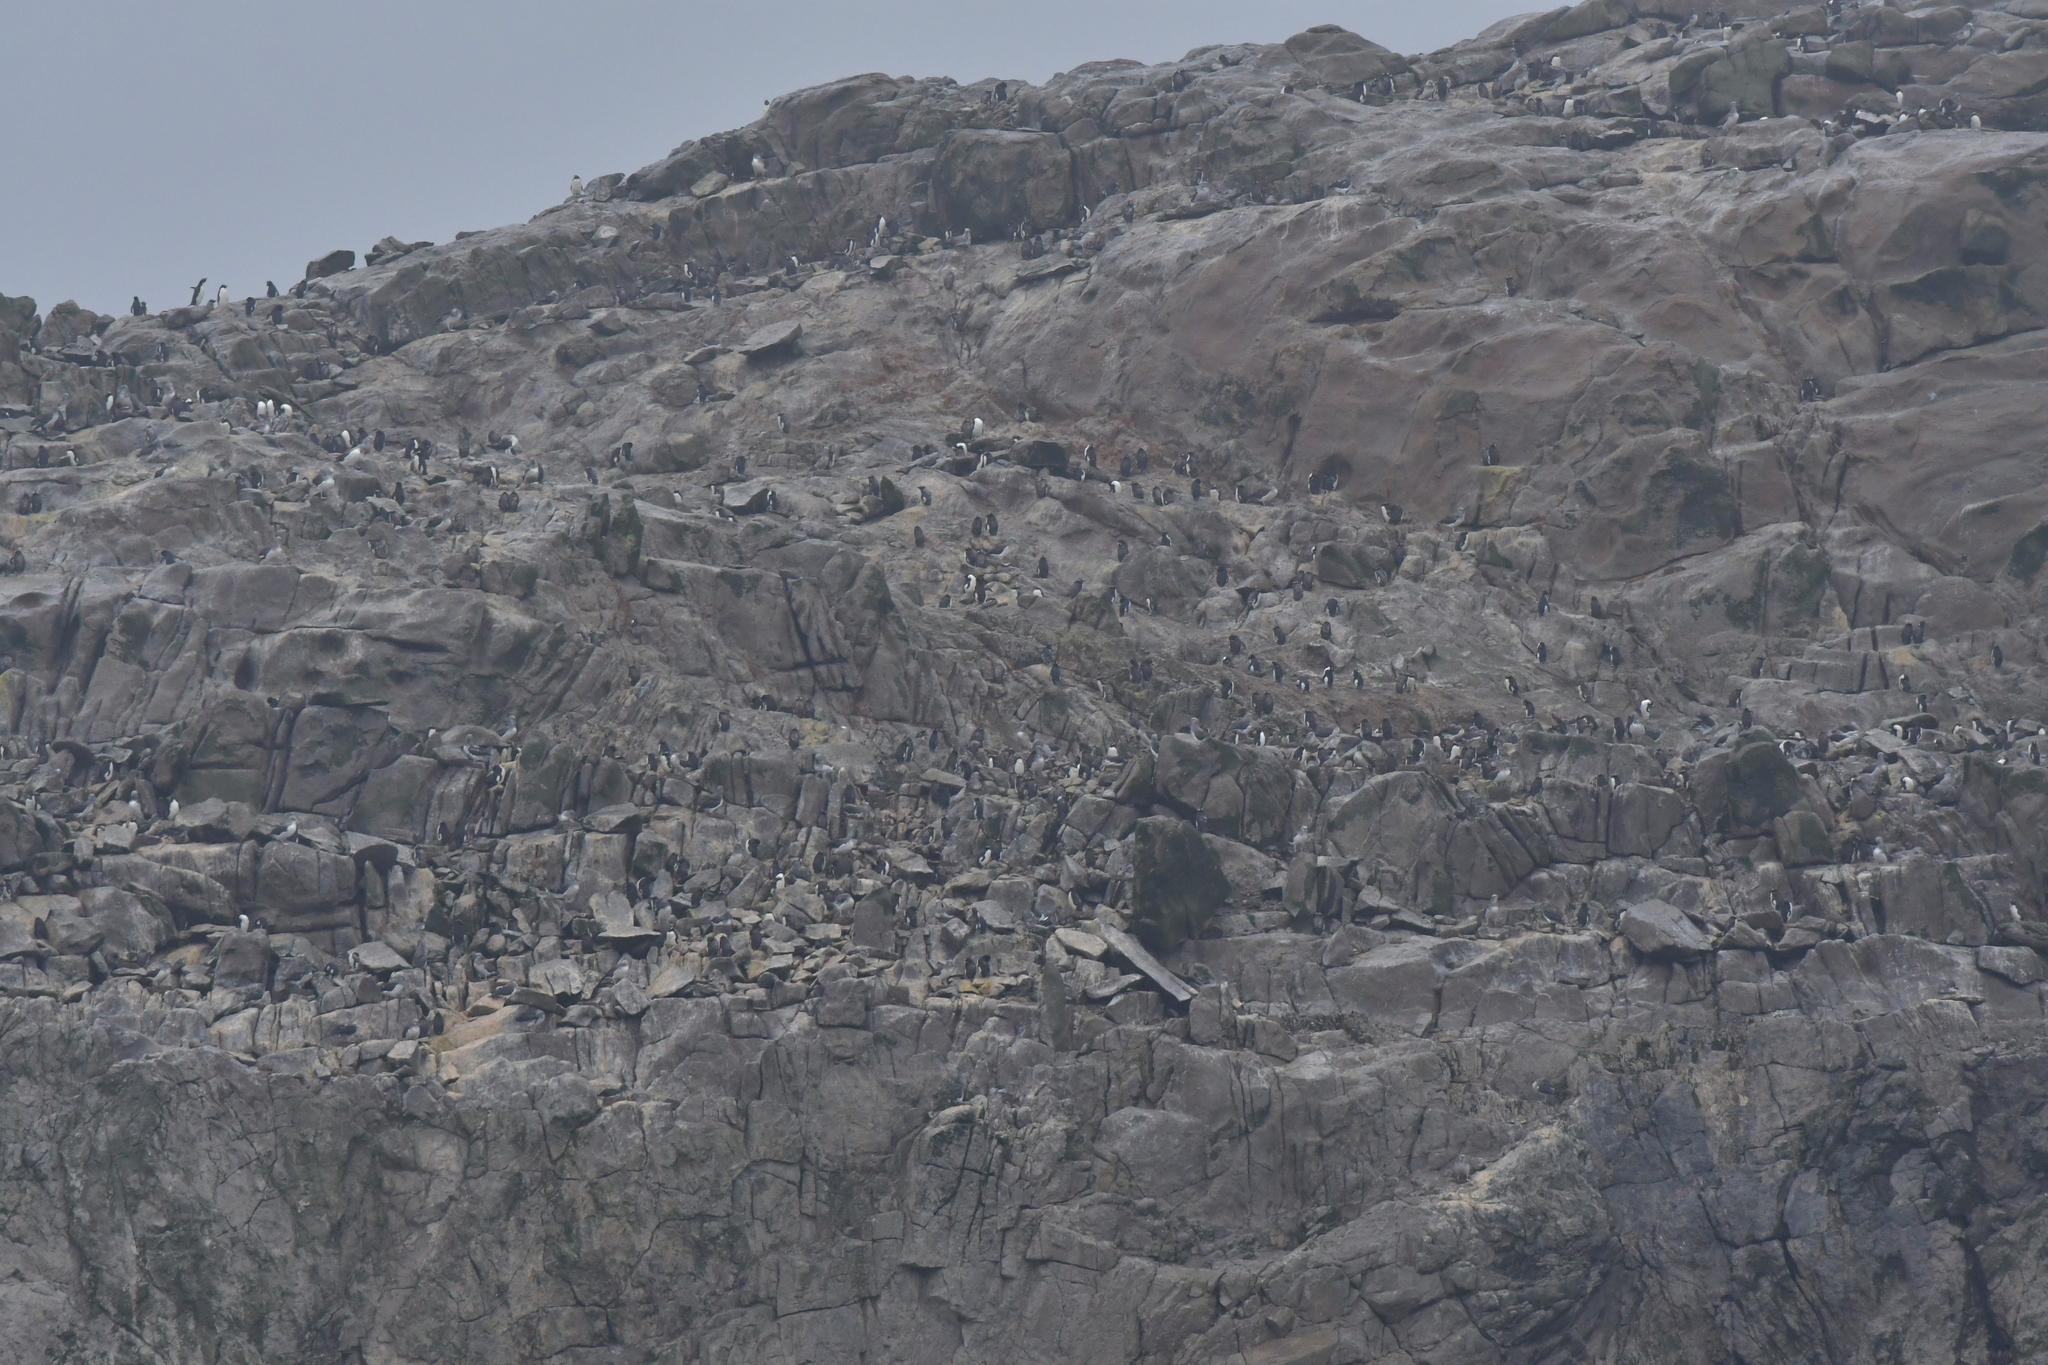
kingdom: Animalia
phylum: Chordata
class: Aves
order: Sphenisciformes
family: Spheniscidae
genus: Eudyptes
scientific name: Eudyptes sclateri
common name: Erect-crested penguin
